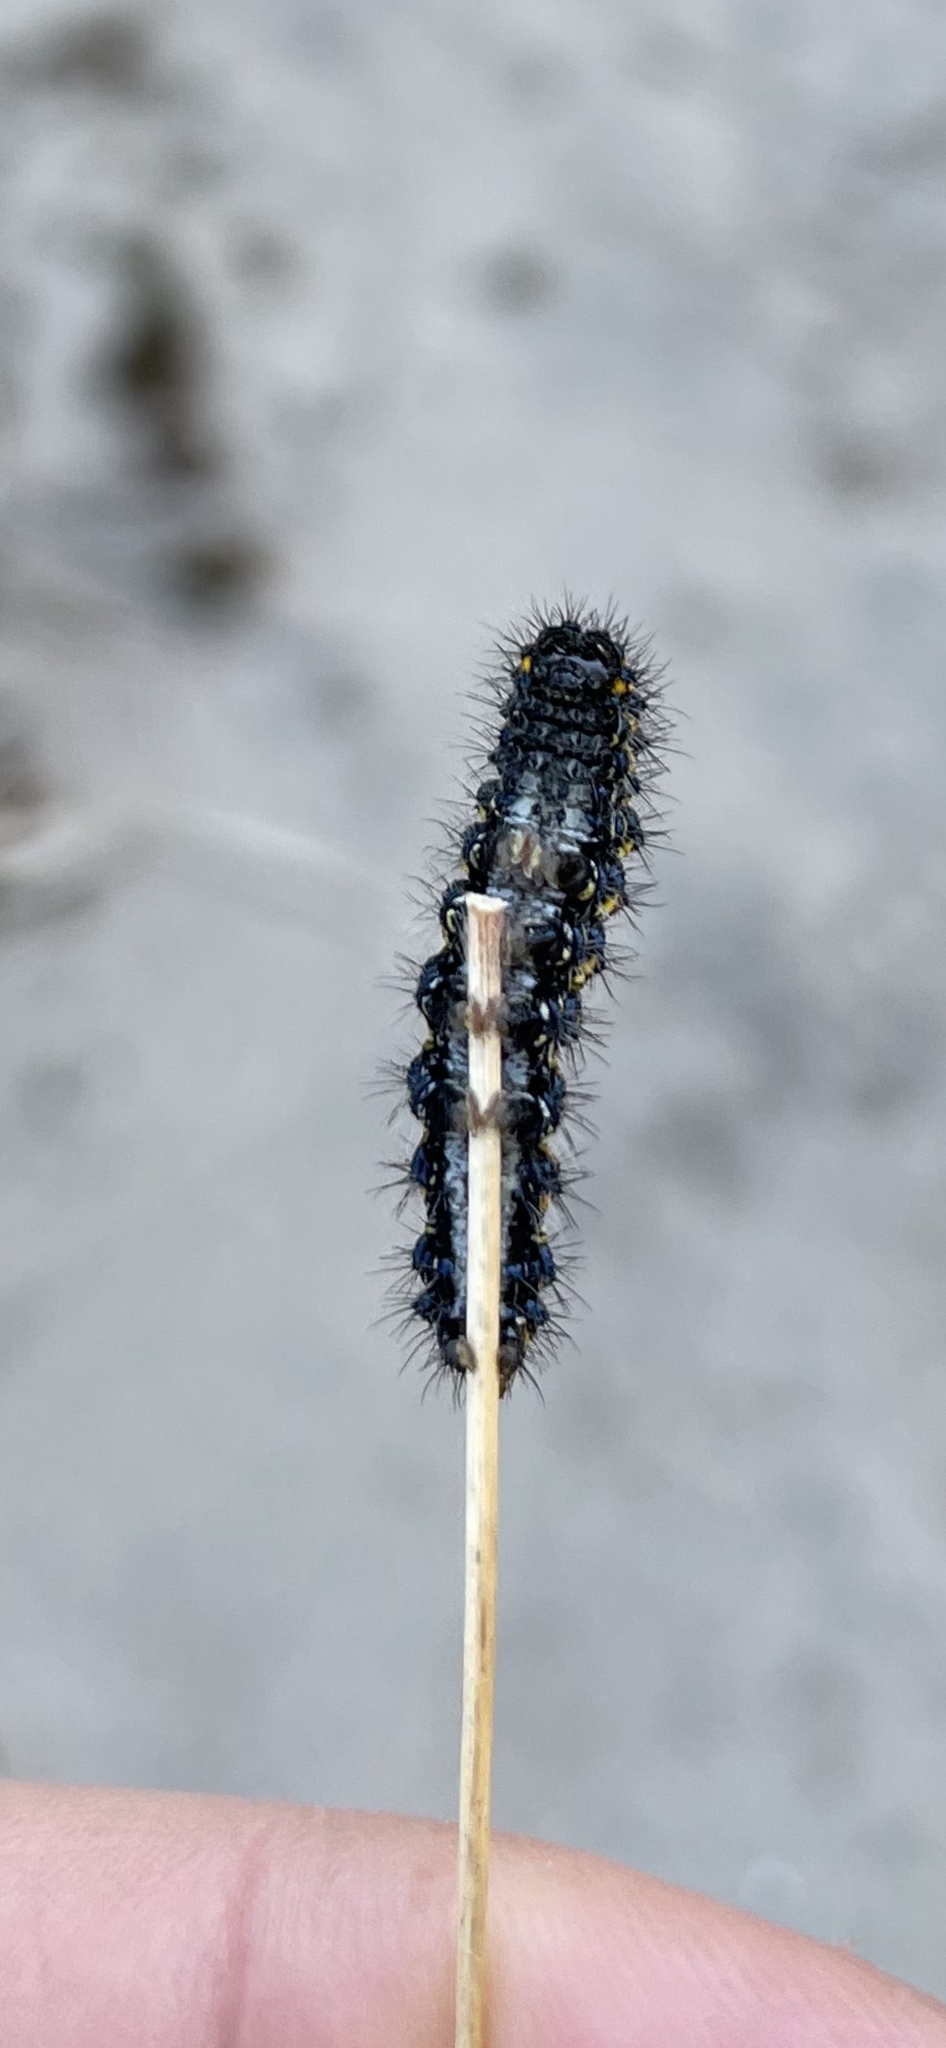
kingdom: Animalia
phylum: Arthropoda
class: Insecta
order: Lepidoptera
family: Erebidae
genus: Haploa
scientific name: Haploa reversa
